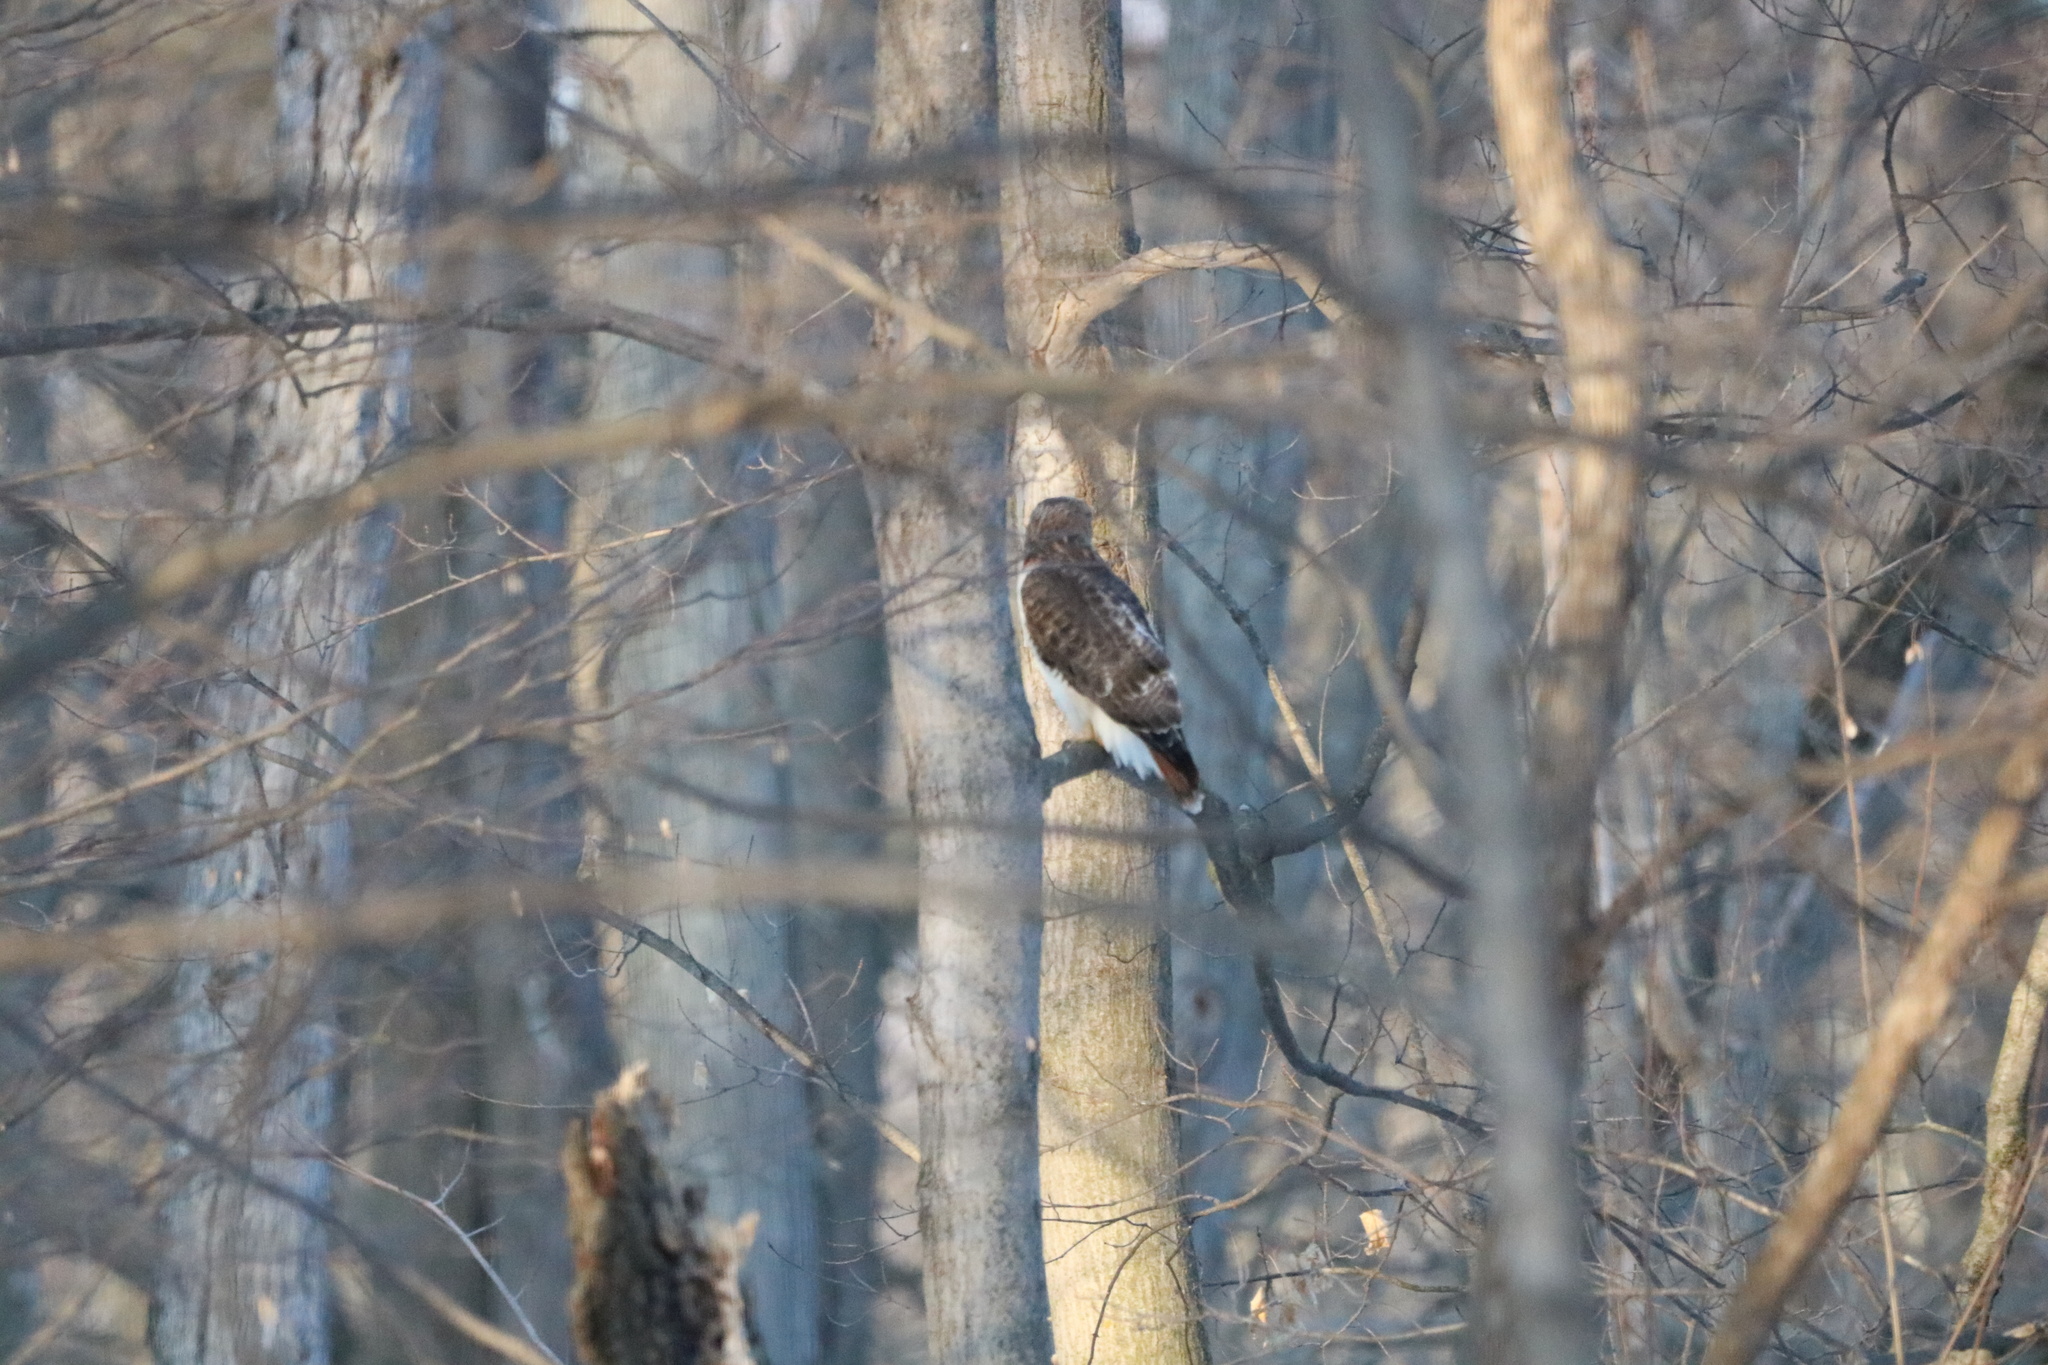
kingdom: Animalia
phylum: Chordata
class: Aves
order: Accipitriformes
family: Accipitridae
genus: Buteo
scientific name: Buteo jamaicensis
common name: Red-tailed hawk
